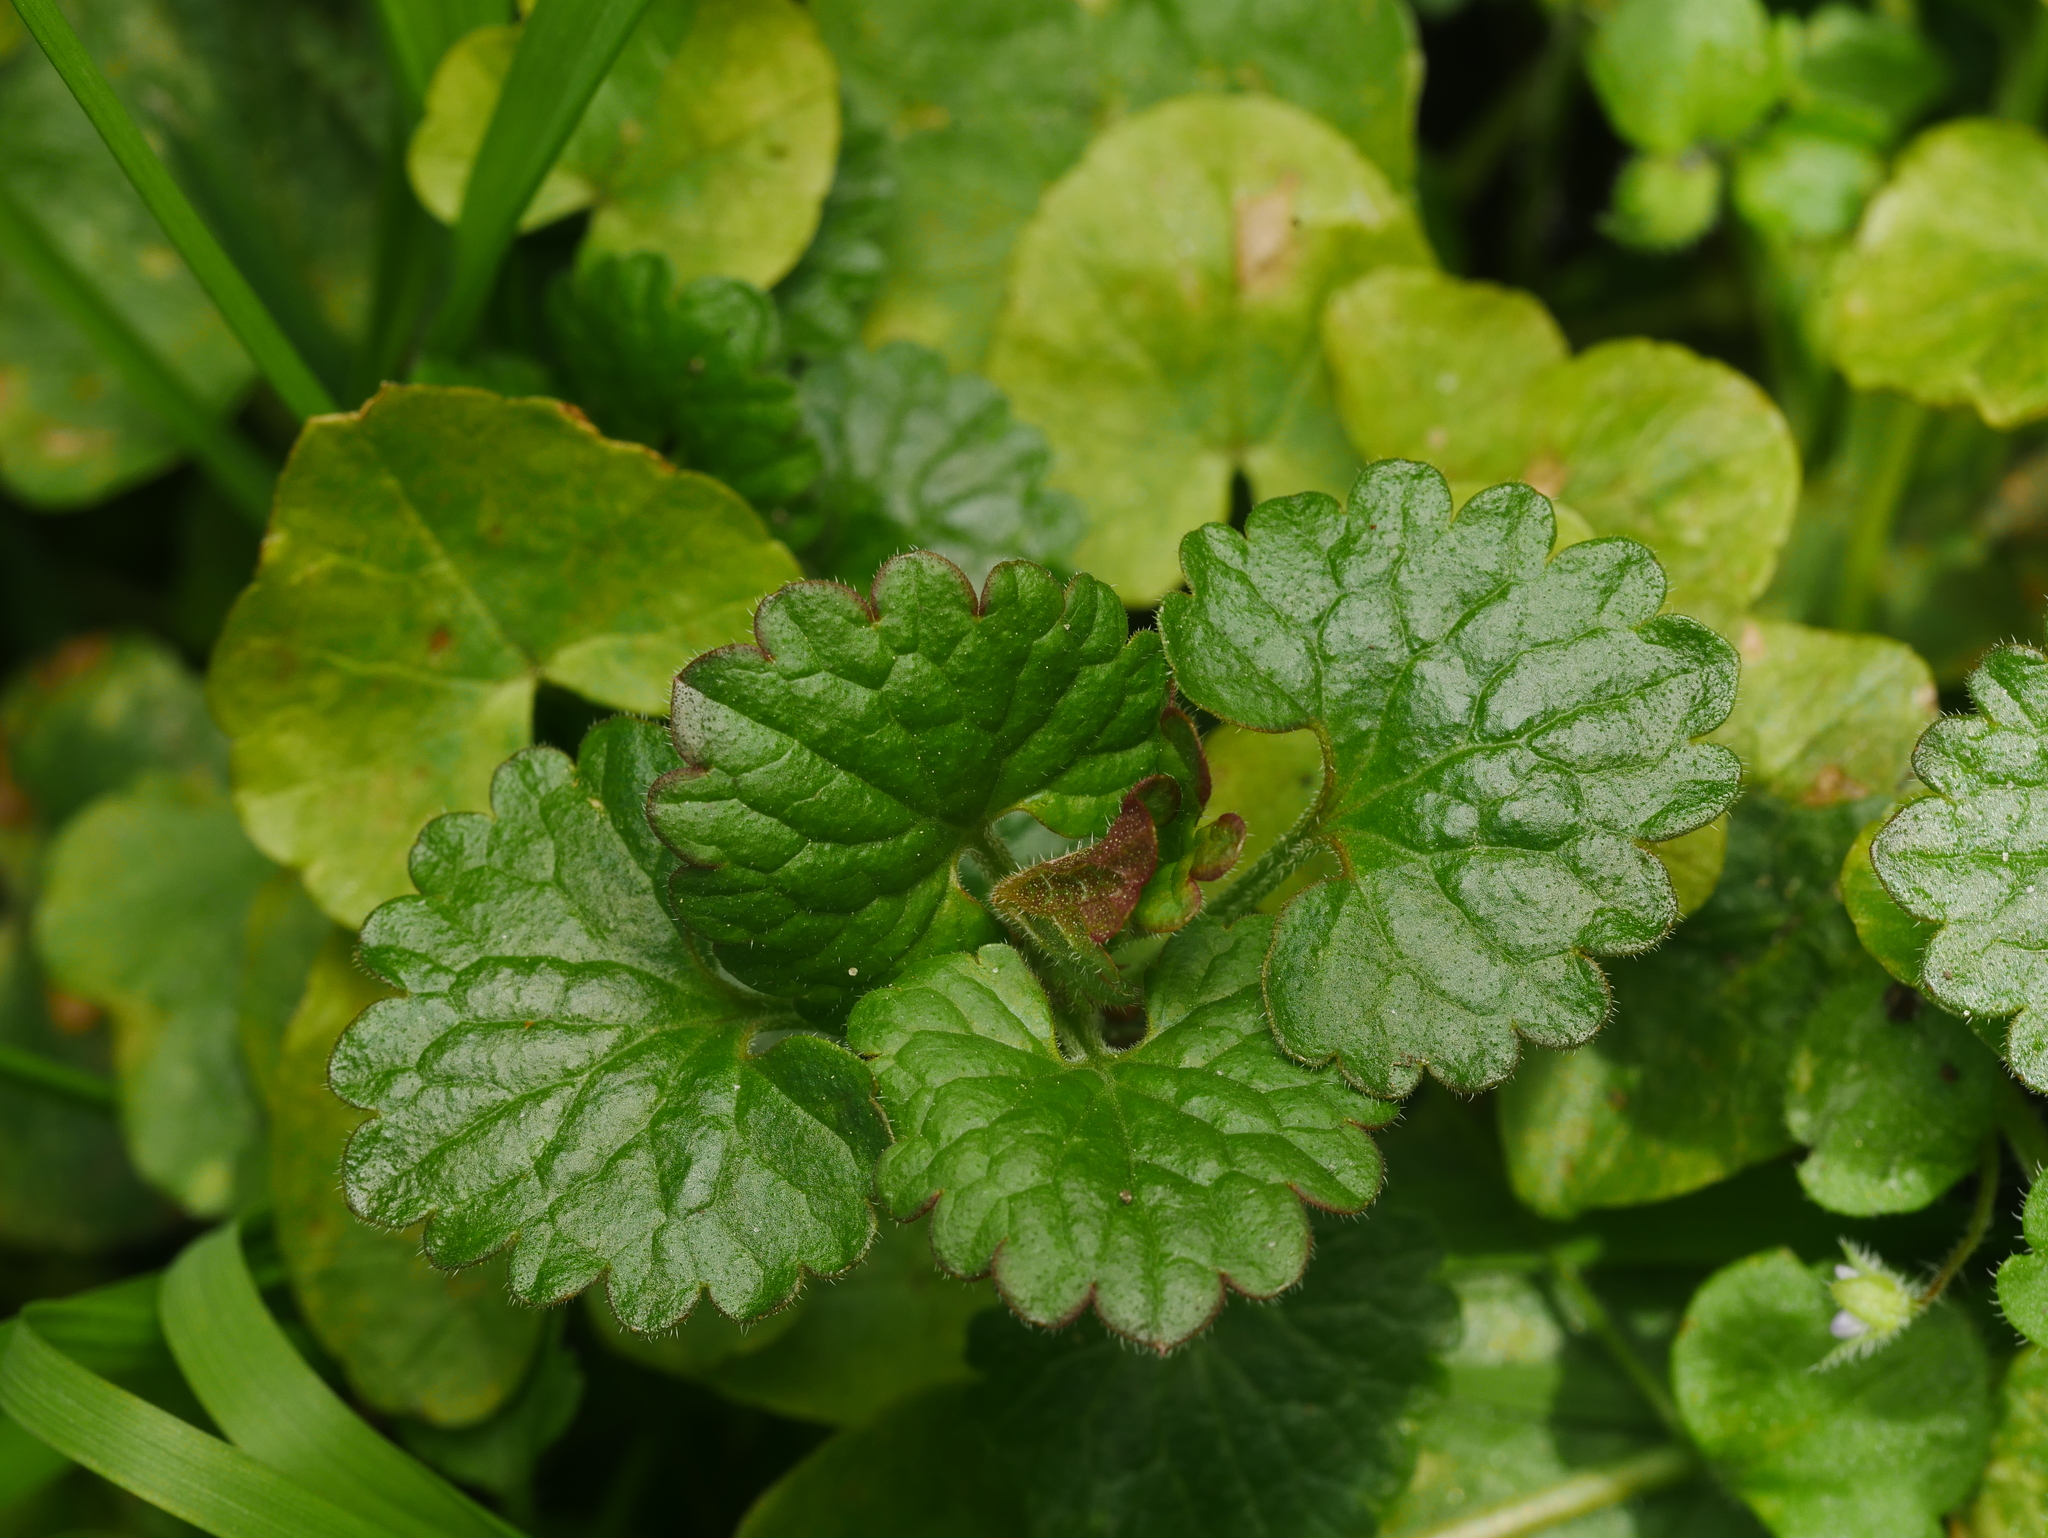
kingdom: Plantae
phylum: Tracheophyta
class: Magnoliopsida
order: Lamiales
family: Lamiaceae
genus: Glechoma
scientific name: Glechoma hederacea
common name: Ground ivy
